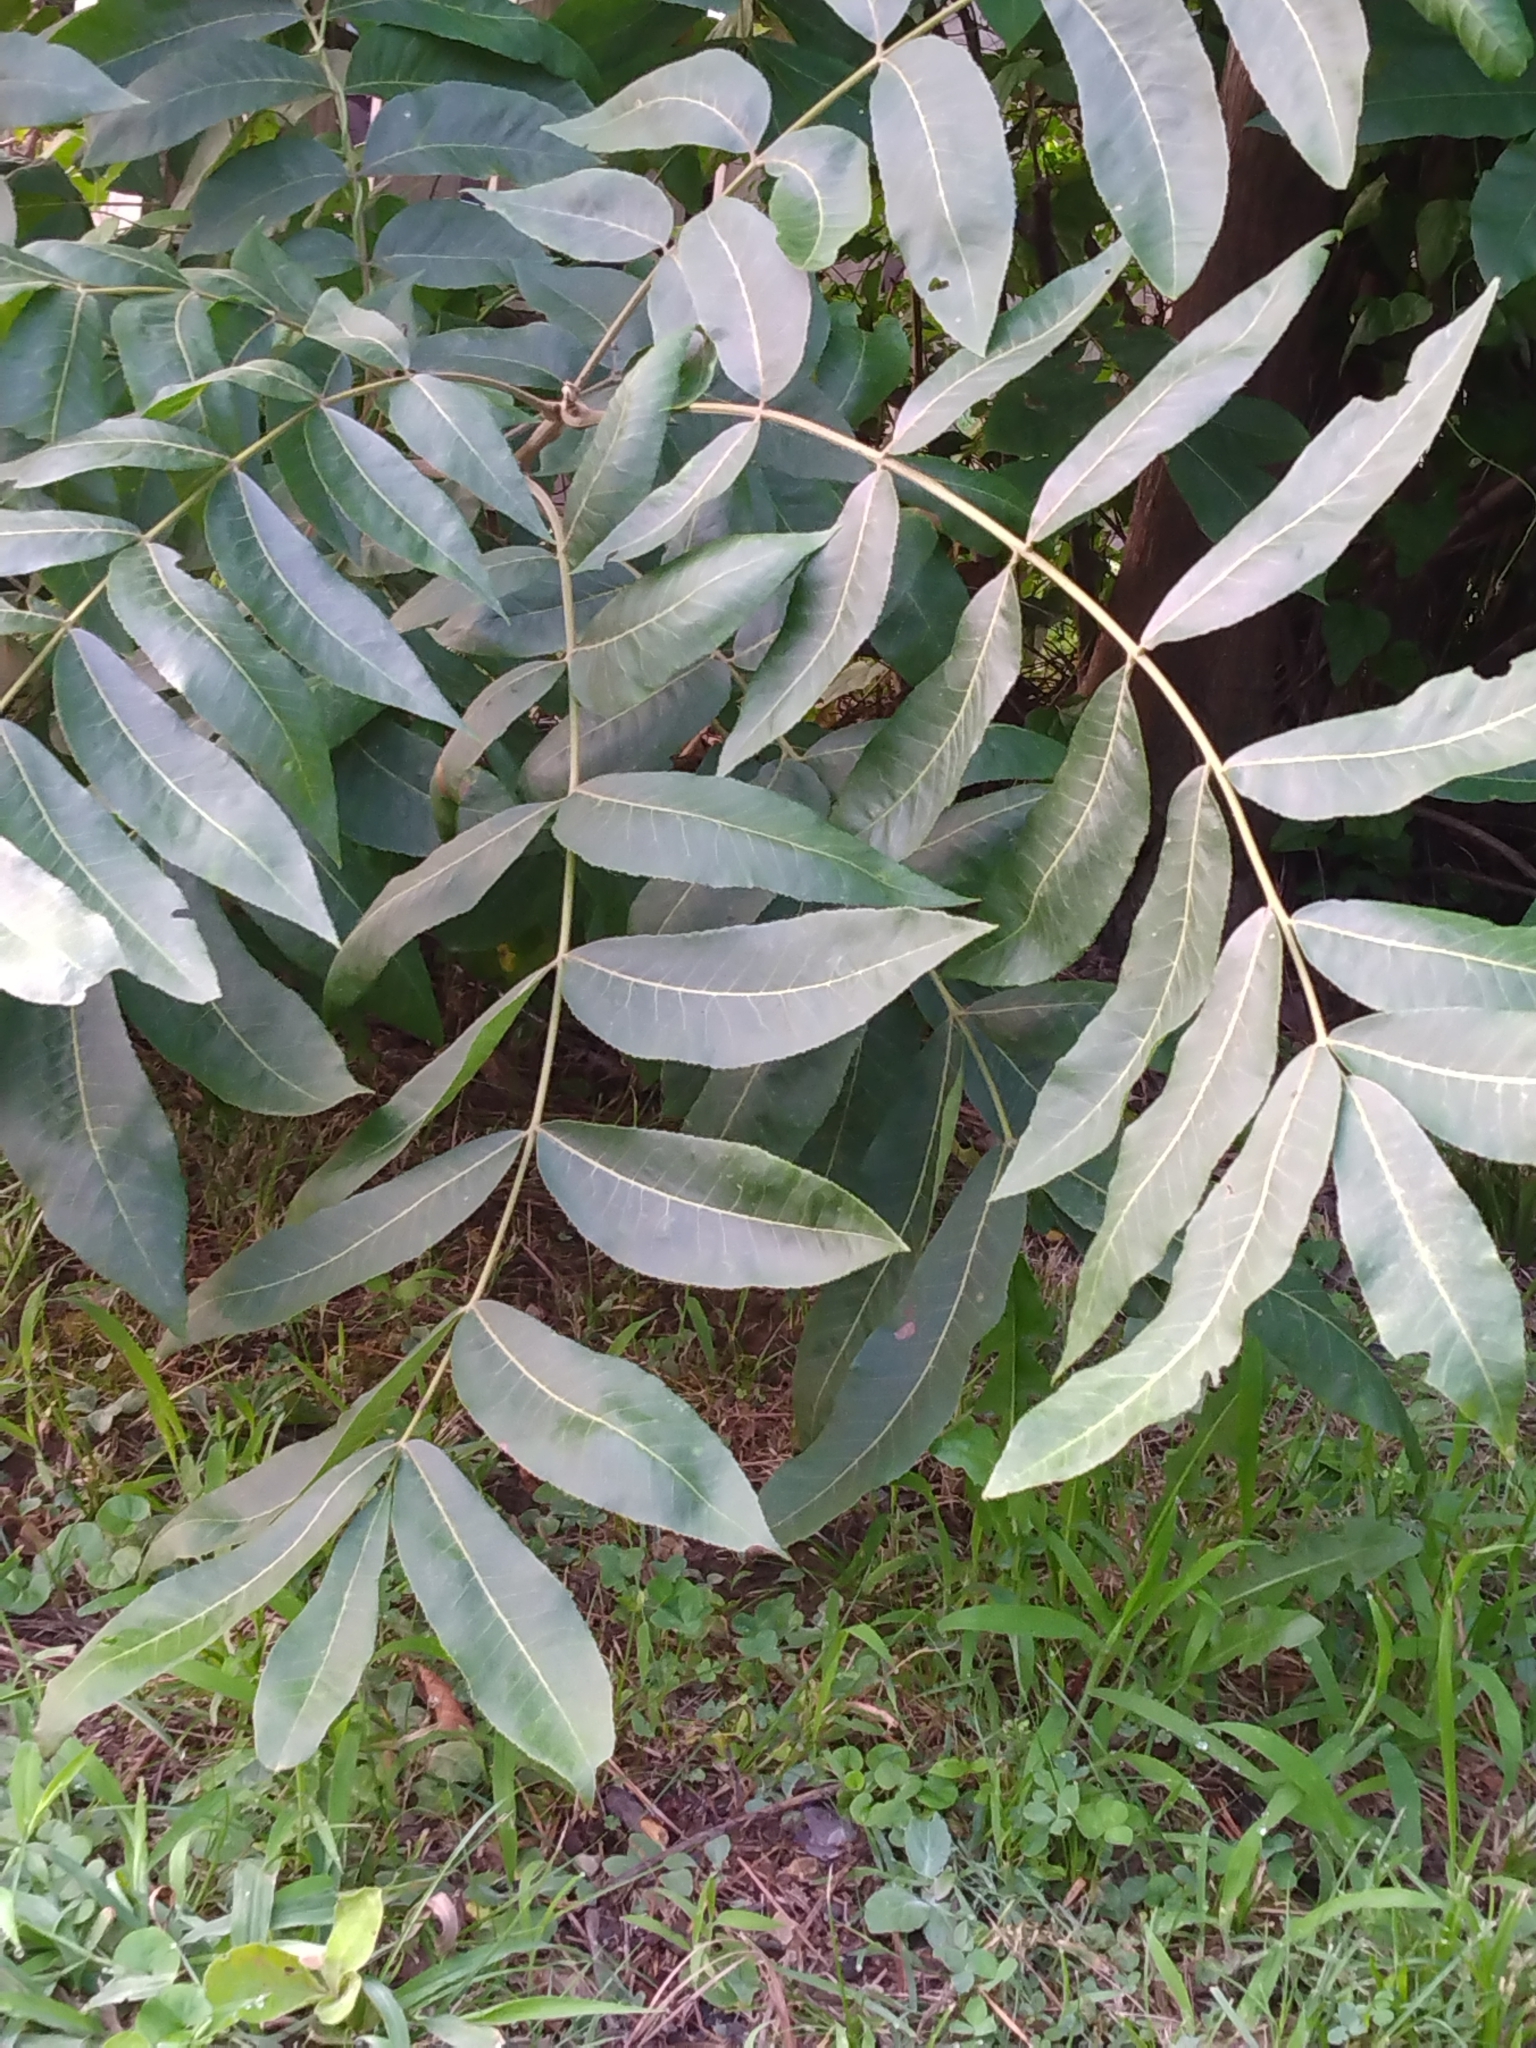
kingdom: Plantae
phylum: Tracheophyta
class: Magnoliopsida
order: Fagales
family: Juglandaceae
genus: Carya
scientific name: Carya illinoinensis
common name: Pecan
